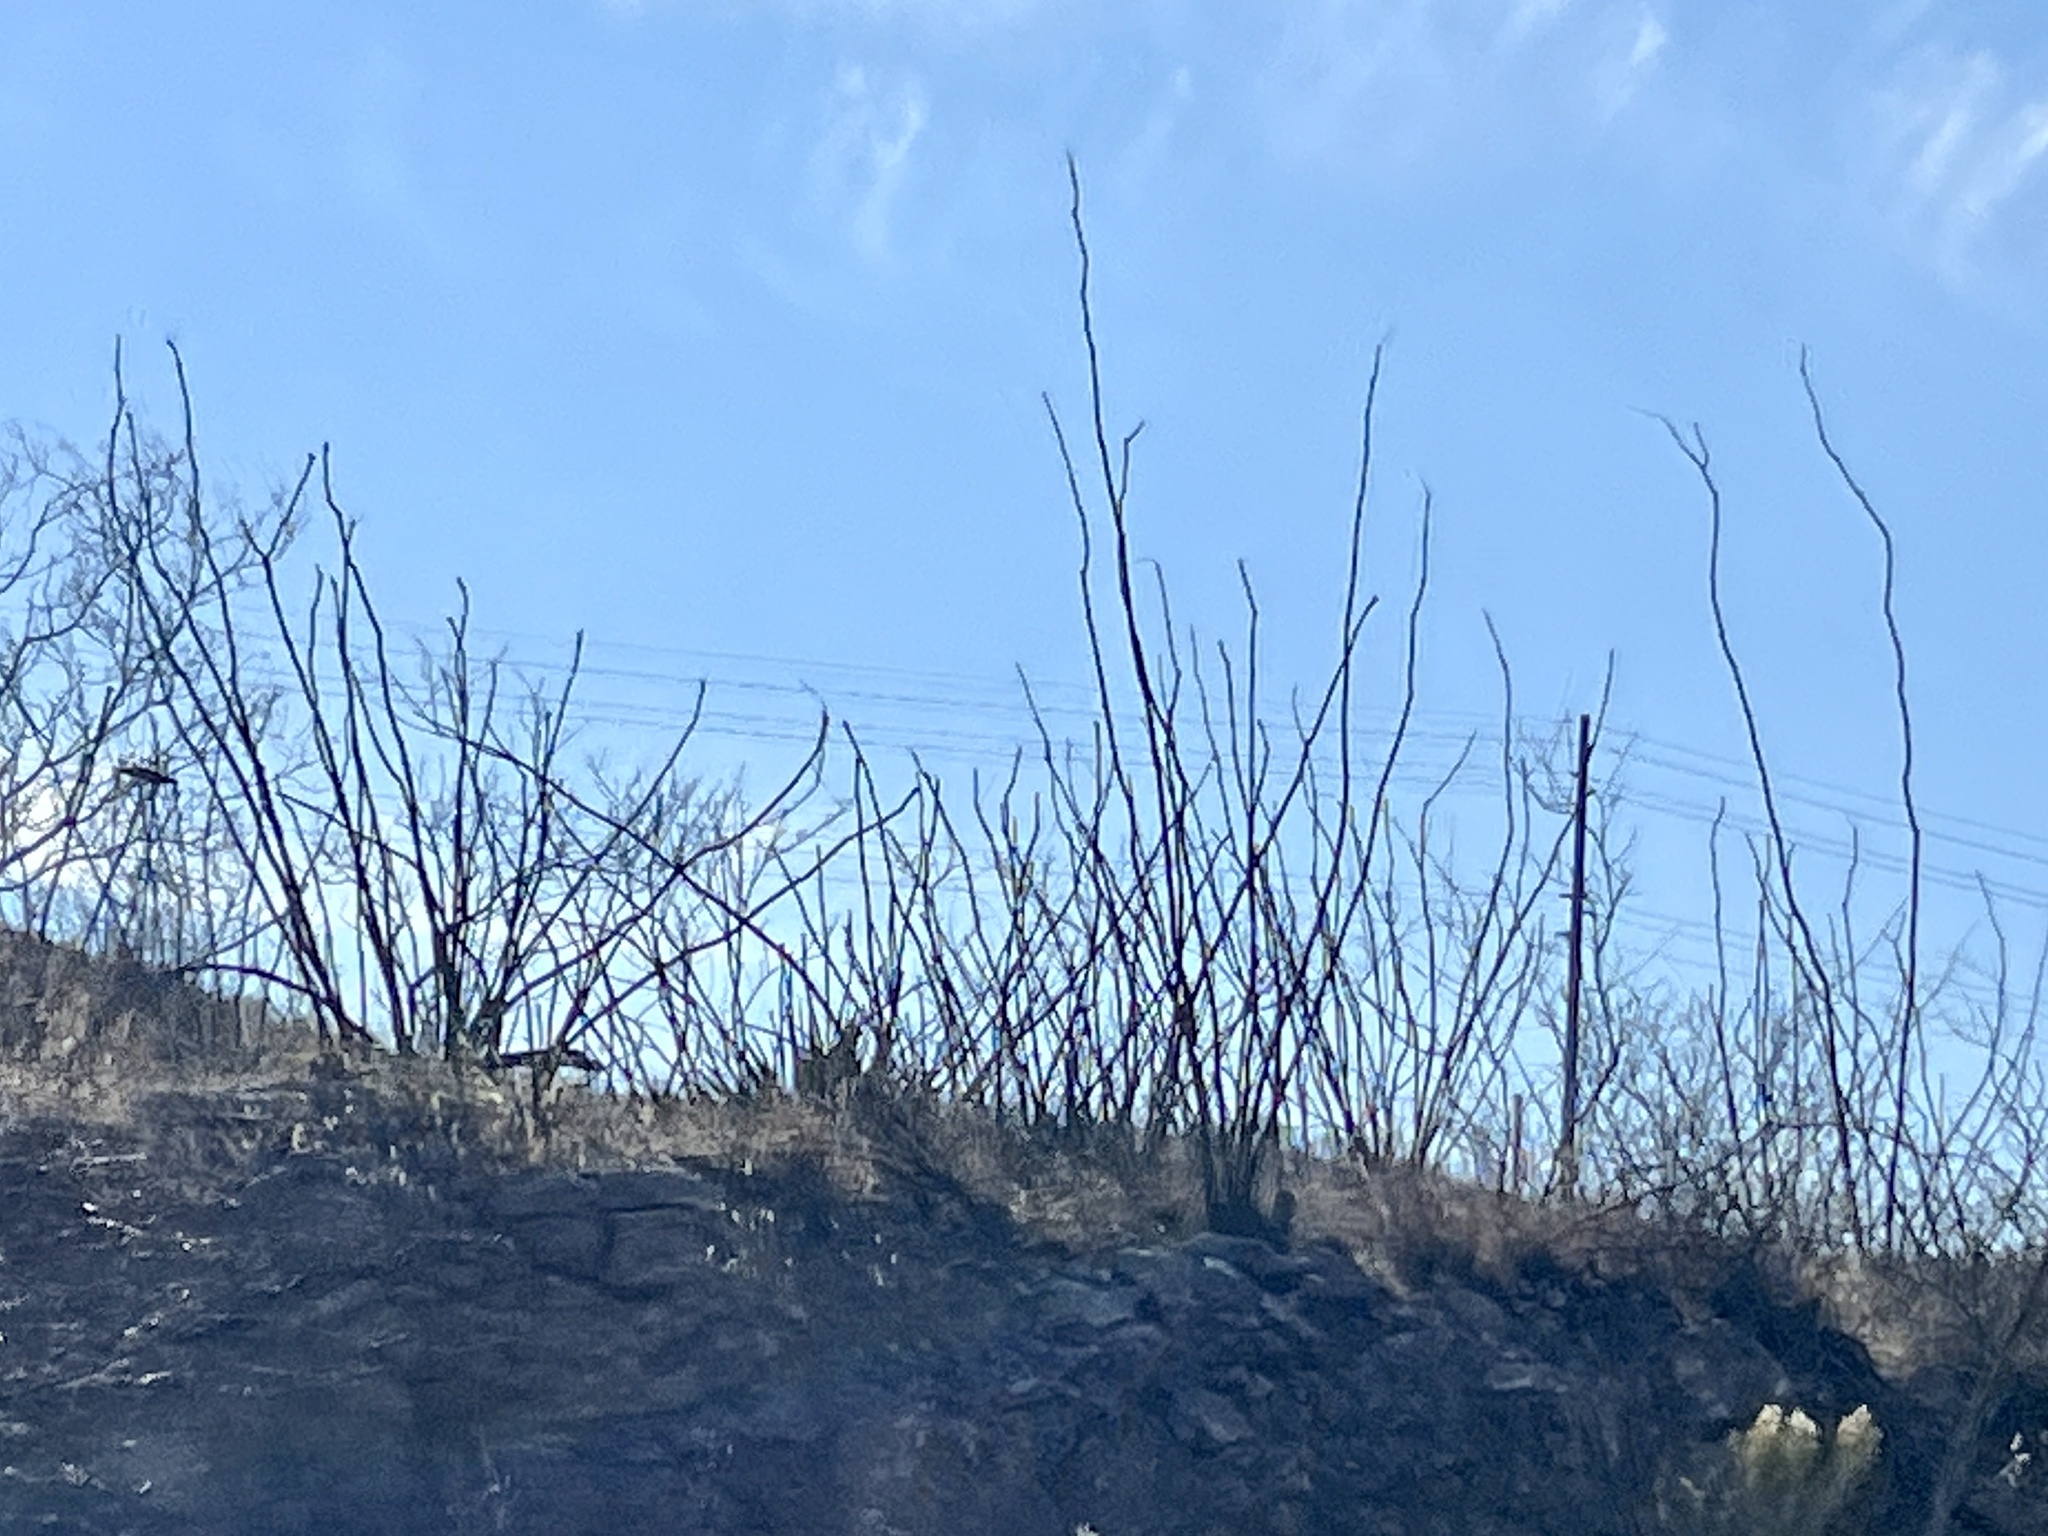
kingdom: Plantae
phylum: Tracheophyta
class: Magnoliopsida
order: Ericales
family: Fouquieriaceae
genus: Fouquieria
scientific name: Fouquieria splendens
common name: Vine-cactus
